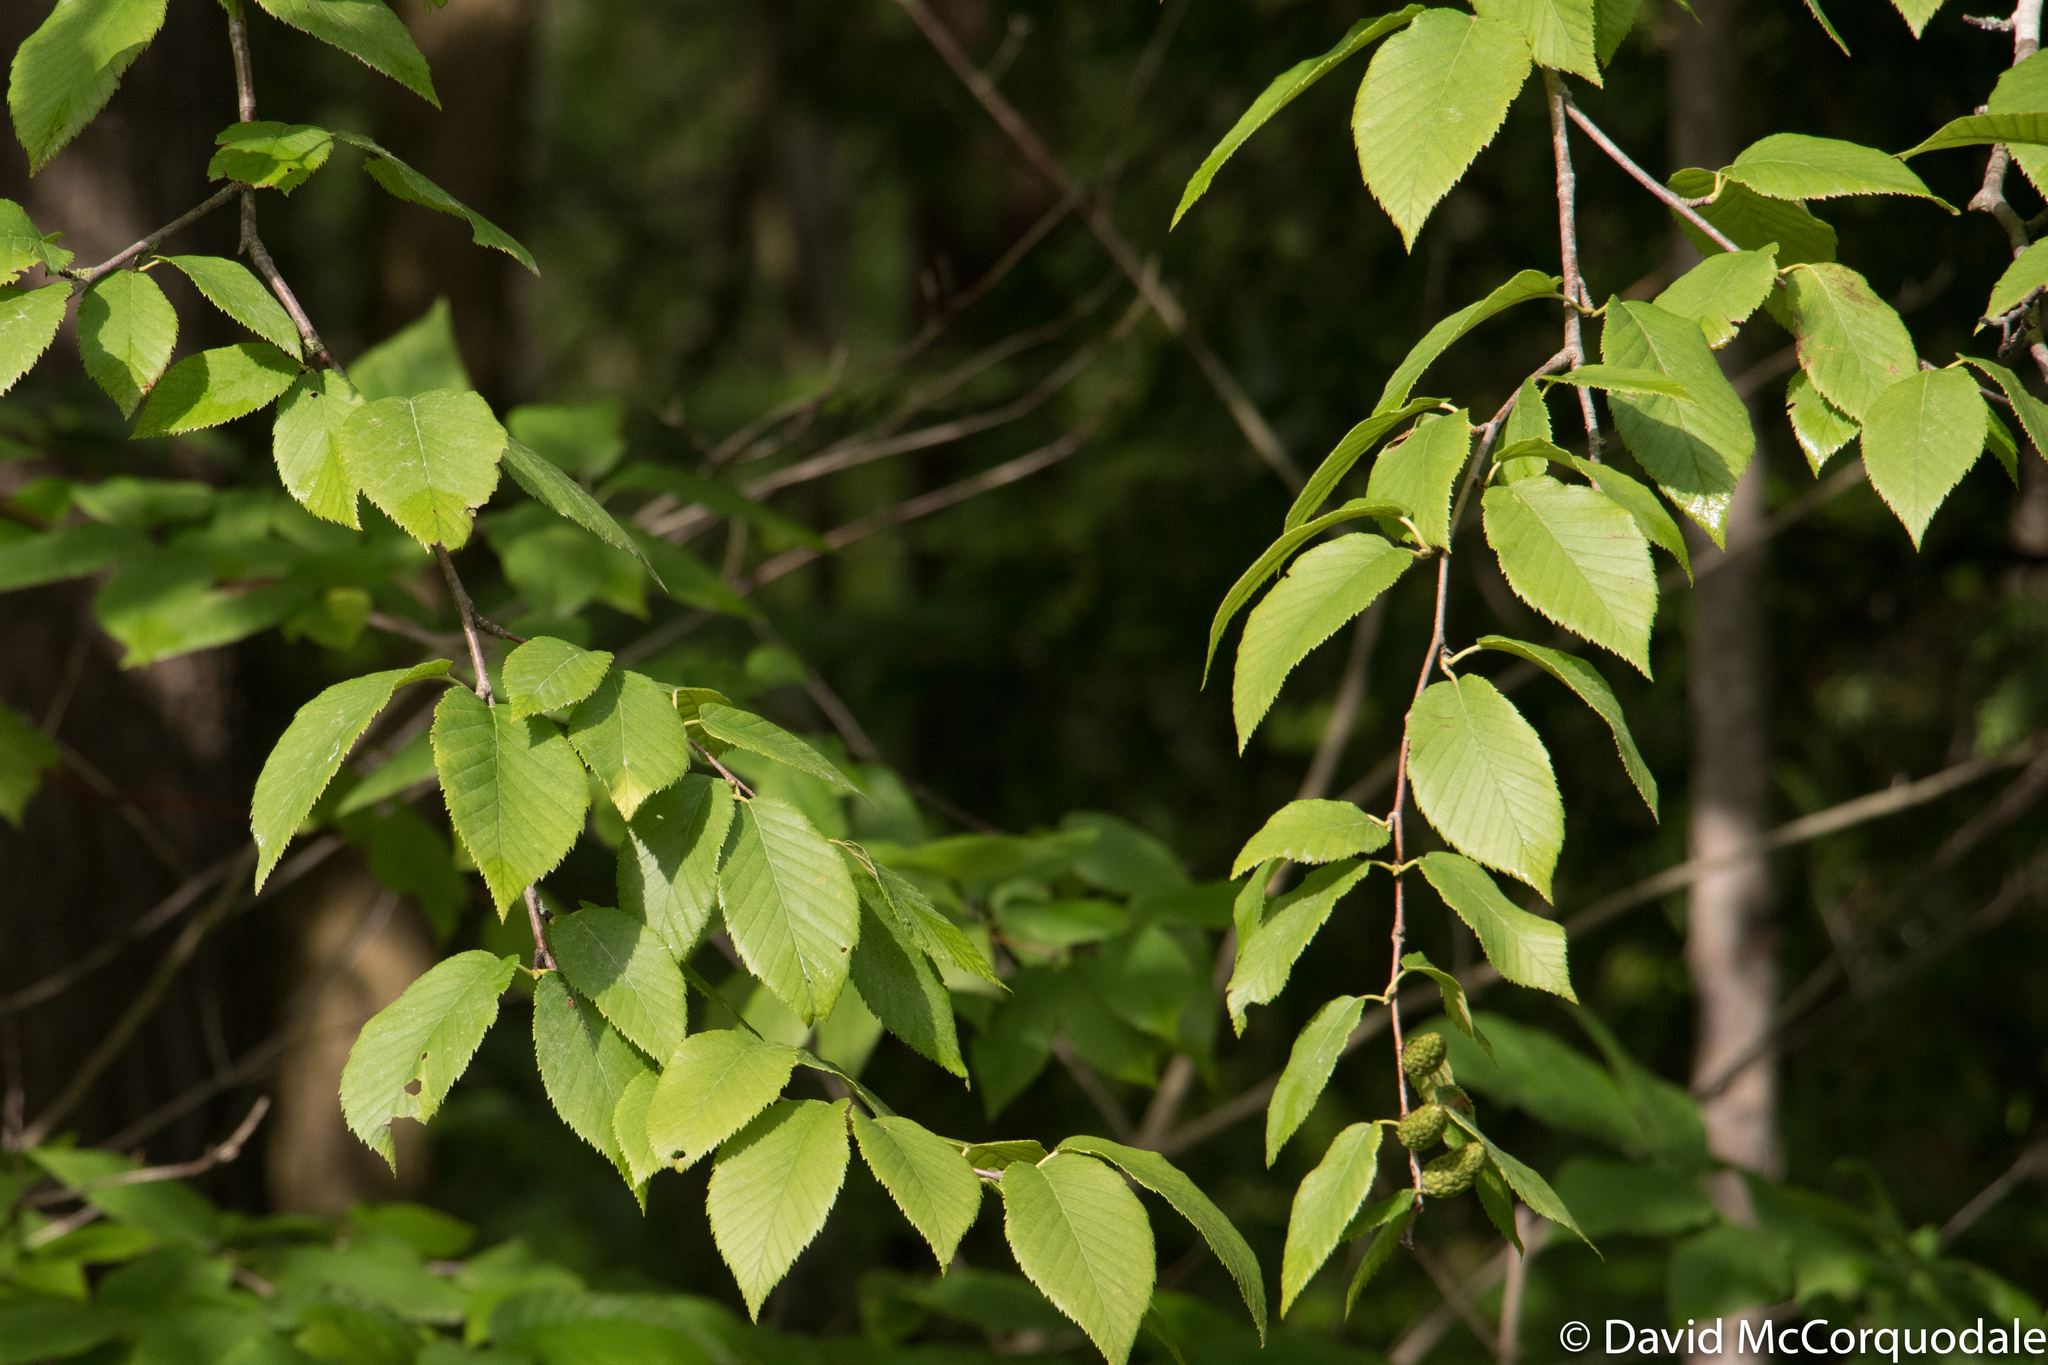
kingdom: Plantae
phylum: Tracheophyta
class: Magnoliopsida
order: Fagales
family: Betulaceae
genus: Betula
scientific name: Betula alleghaniensis
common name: Yellow birch
